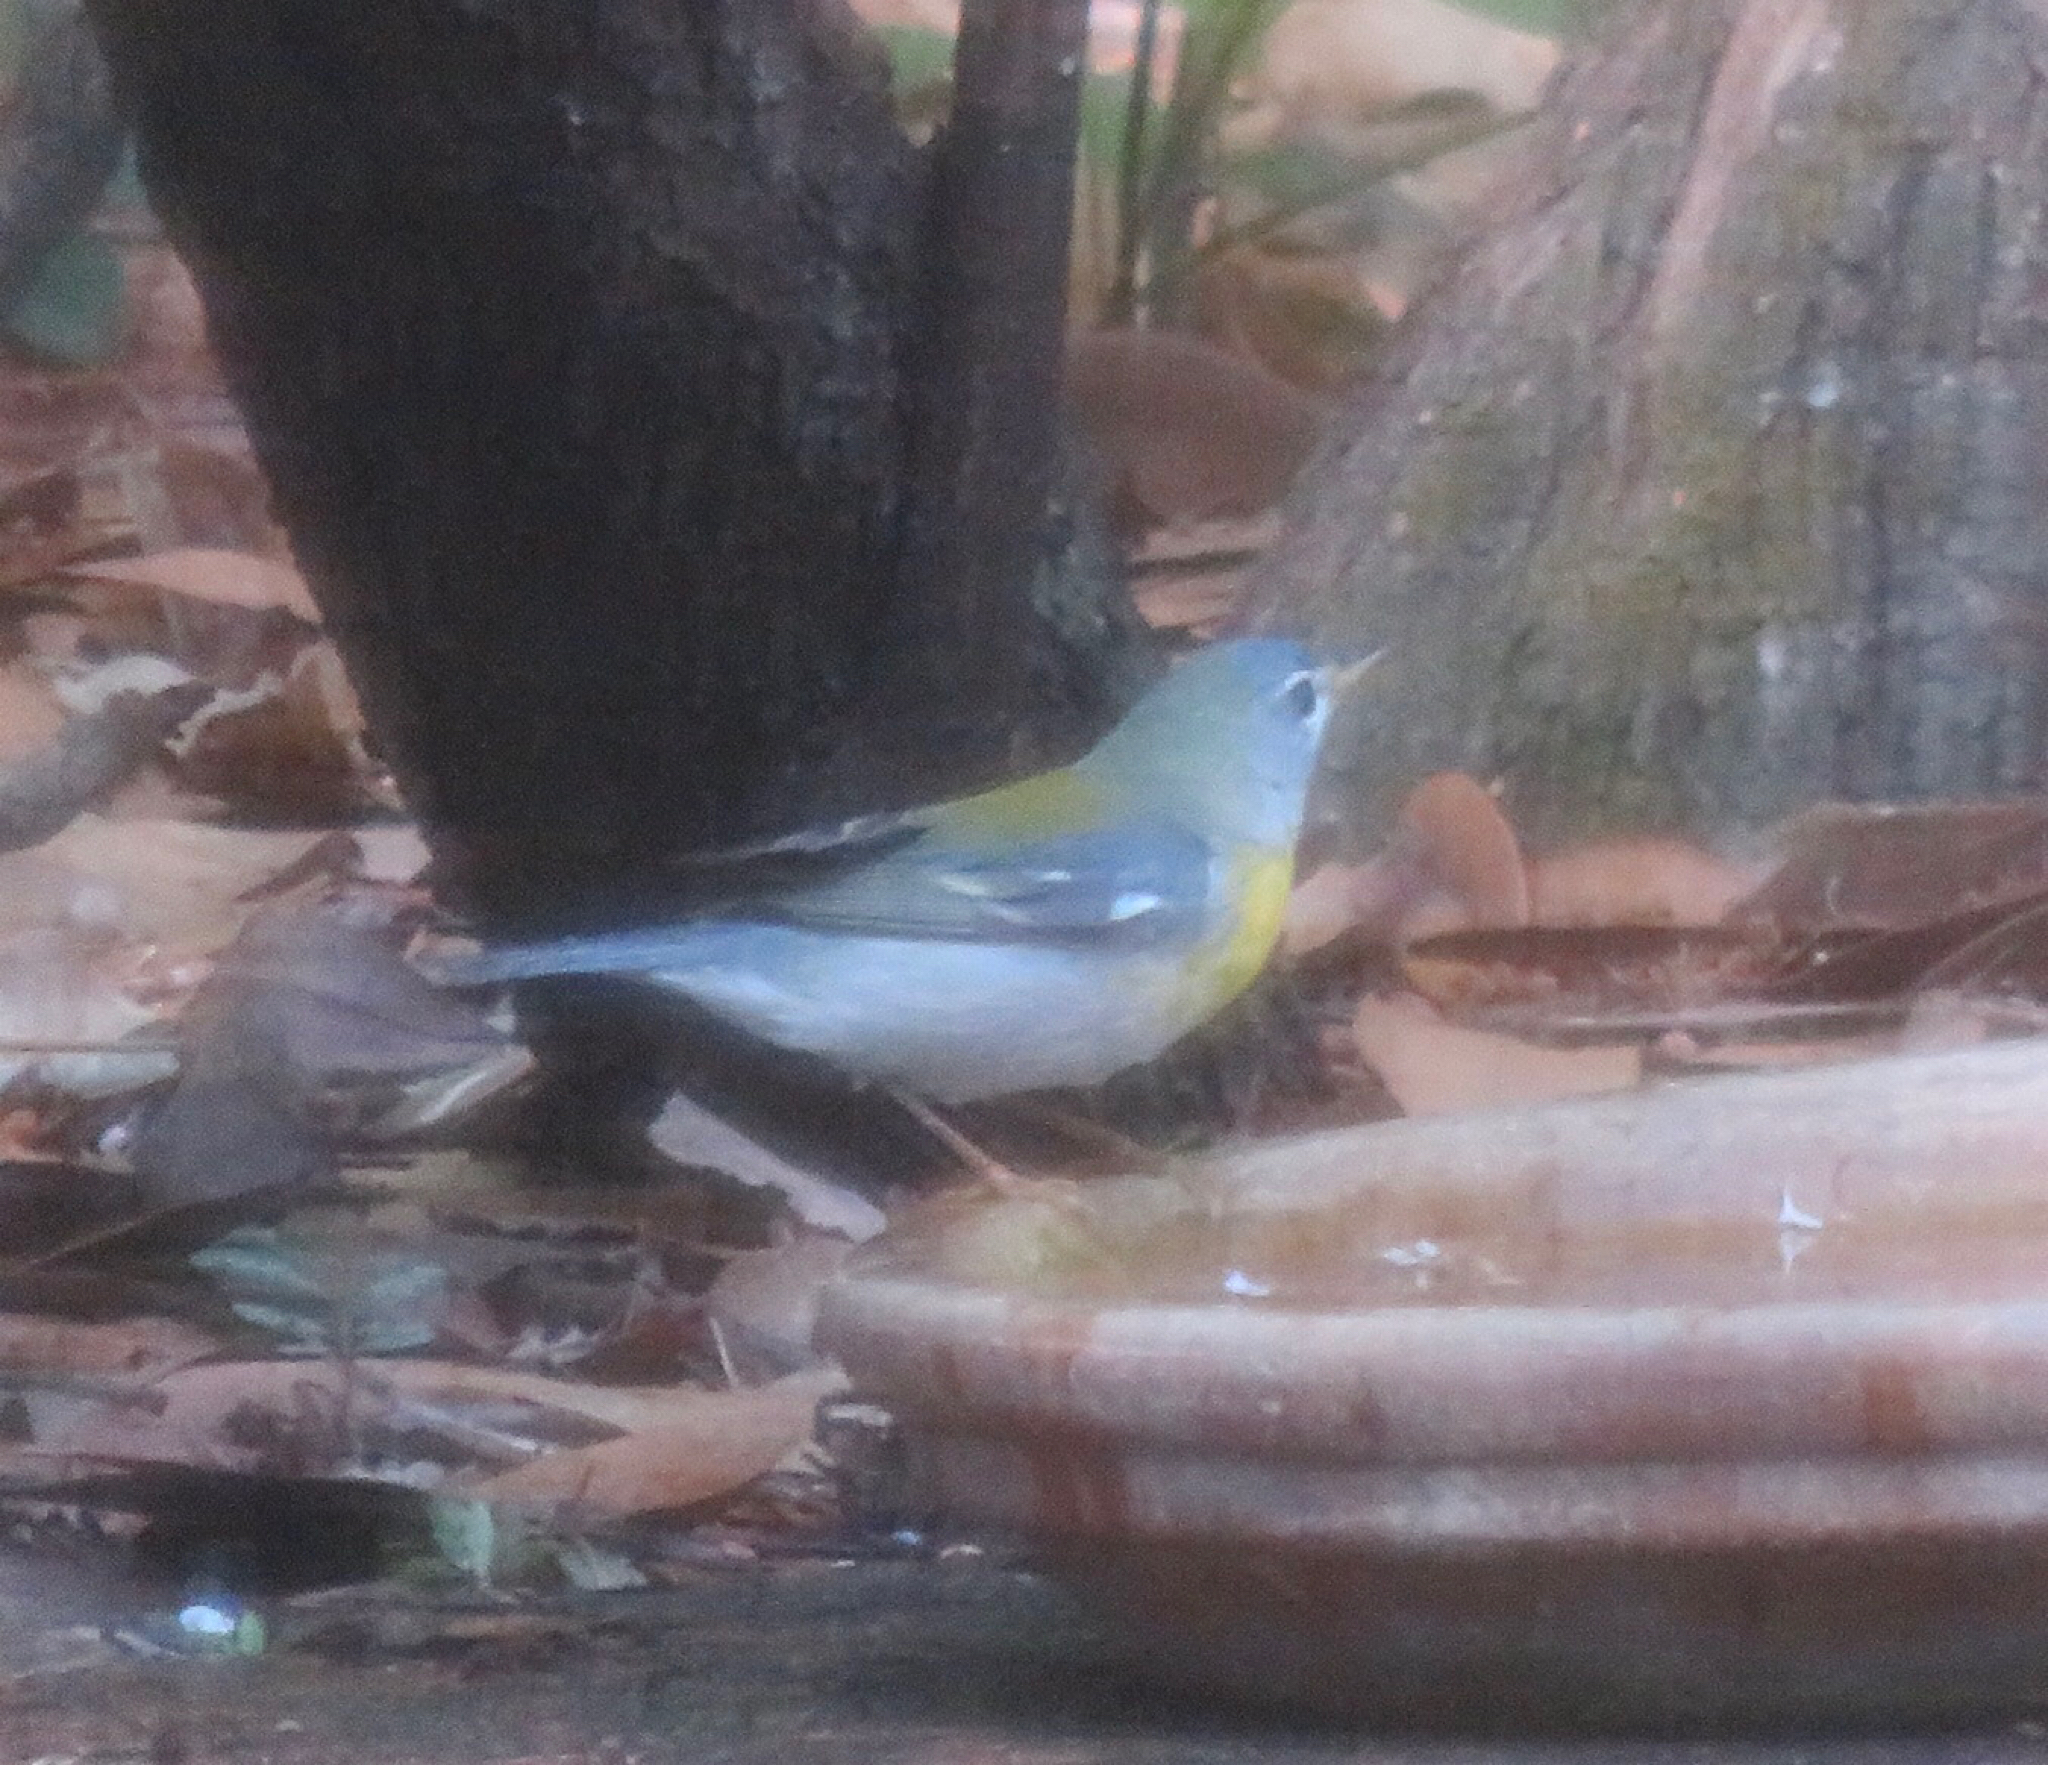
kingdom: Animalia
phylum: Chordata
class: Aves
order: Passeriformes
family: Parulidae
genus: Setophaga
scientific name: Setophaga americana
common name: Northern parula
